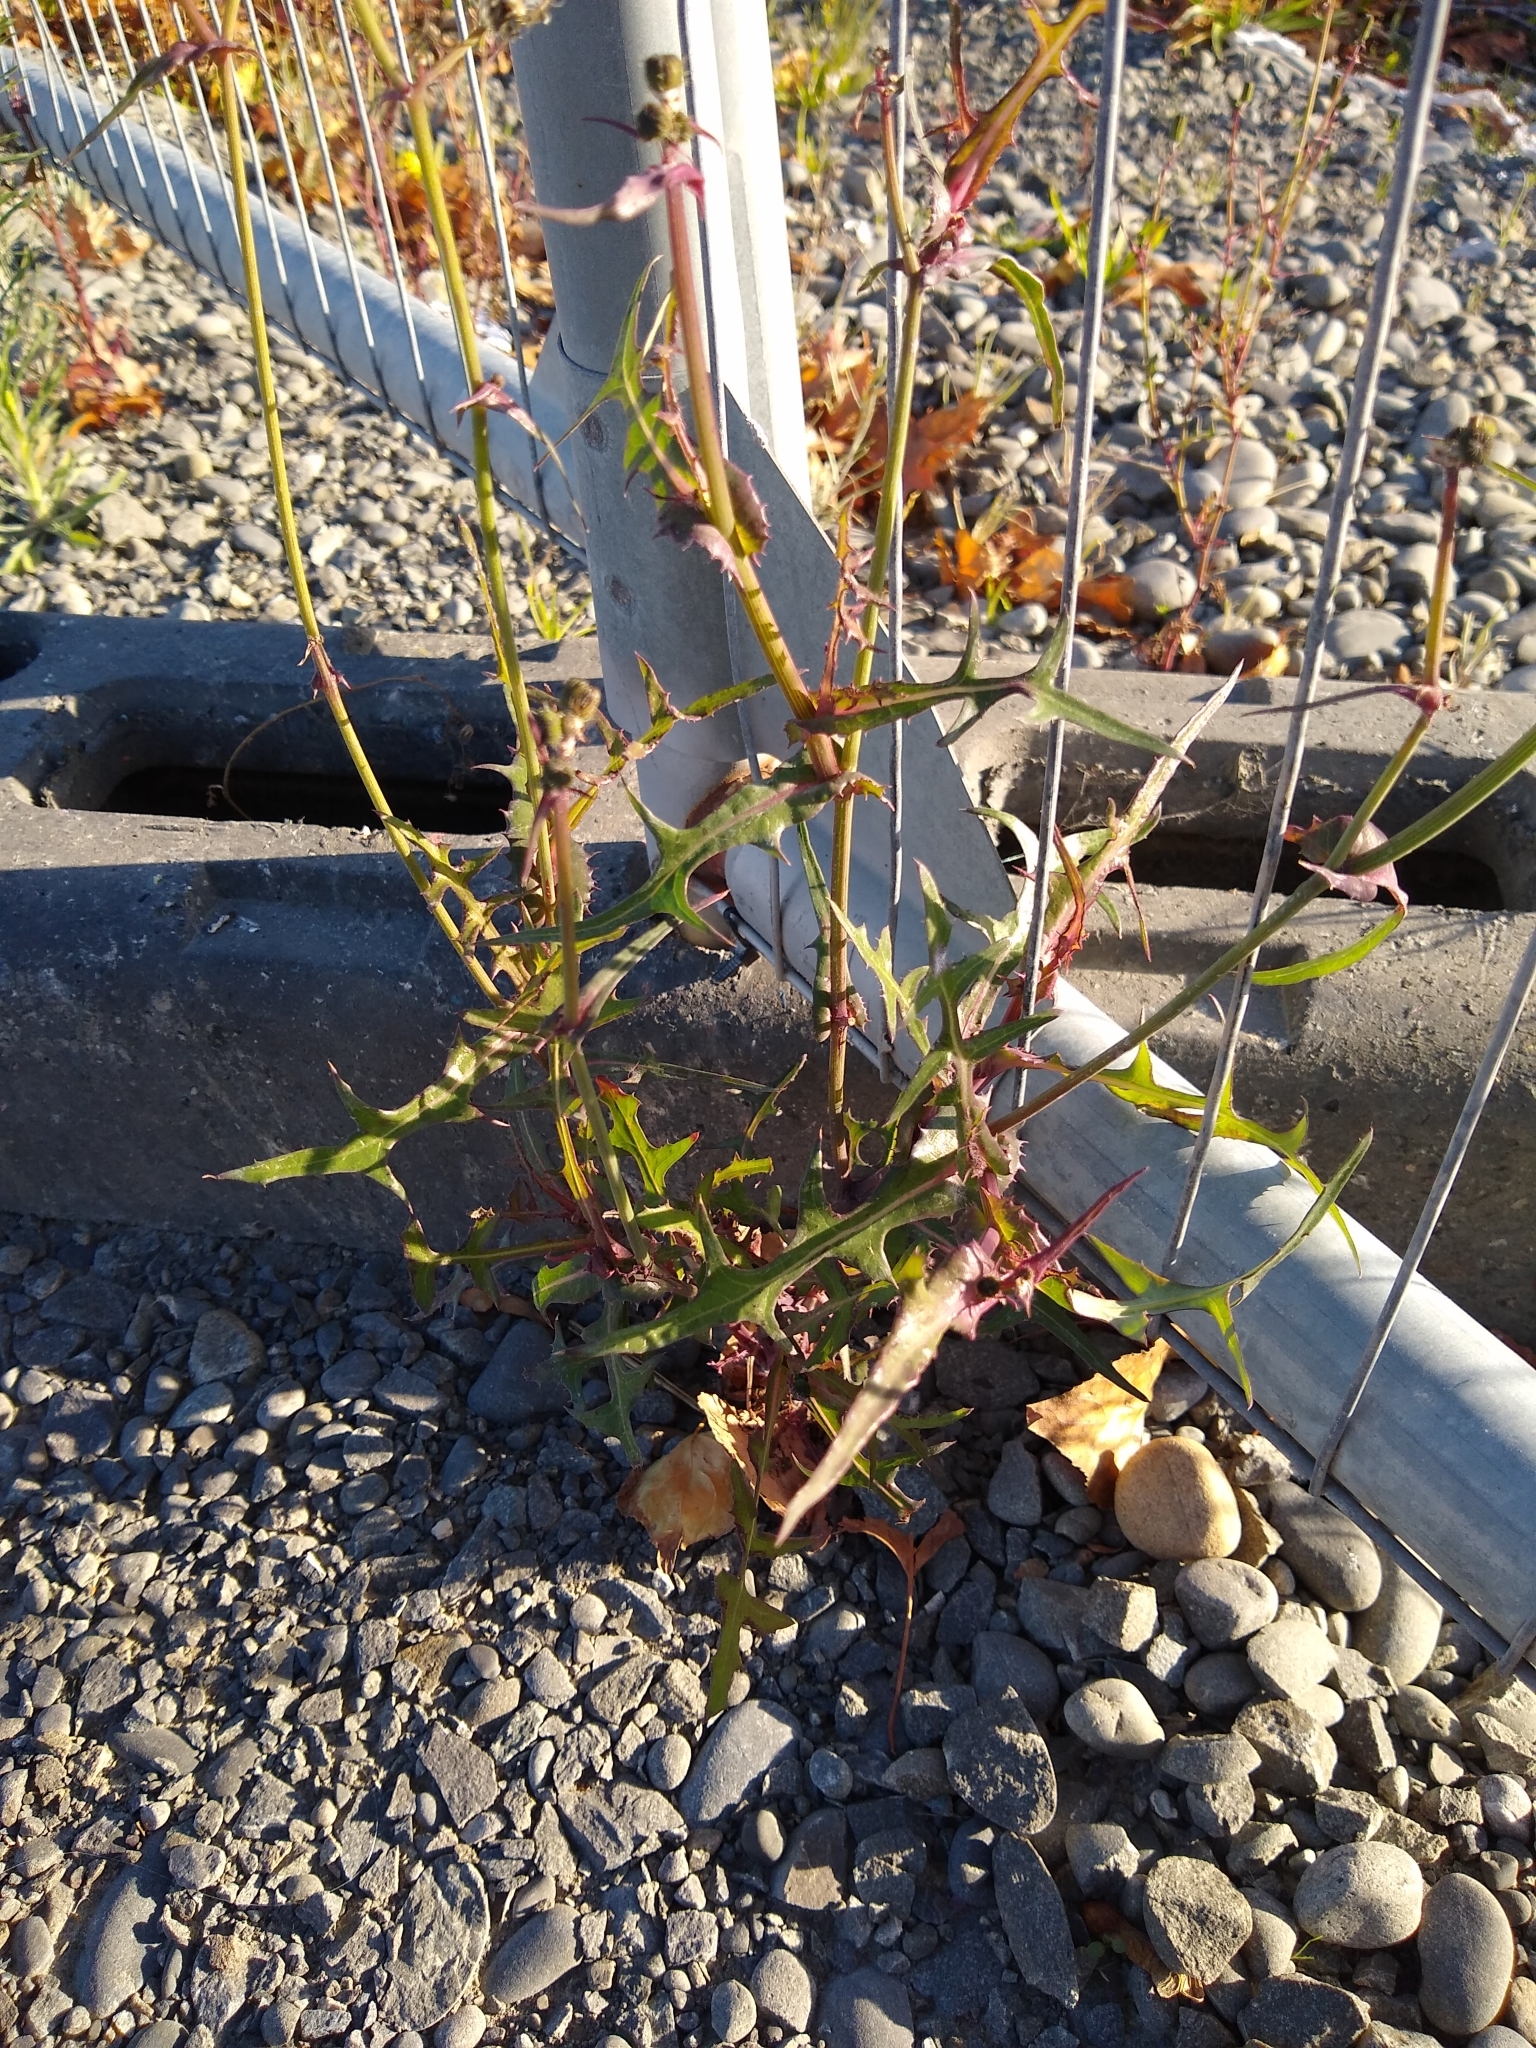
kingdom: Plantae
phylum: Tracheophyta
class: Magnoliopsida
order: Asterales
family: Asteraceae
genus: Sonchus
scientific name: Sonchus oleraceus
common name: Common sowthistle
